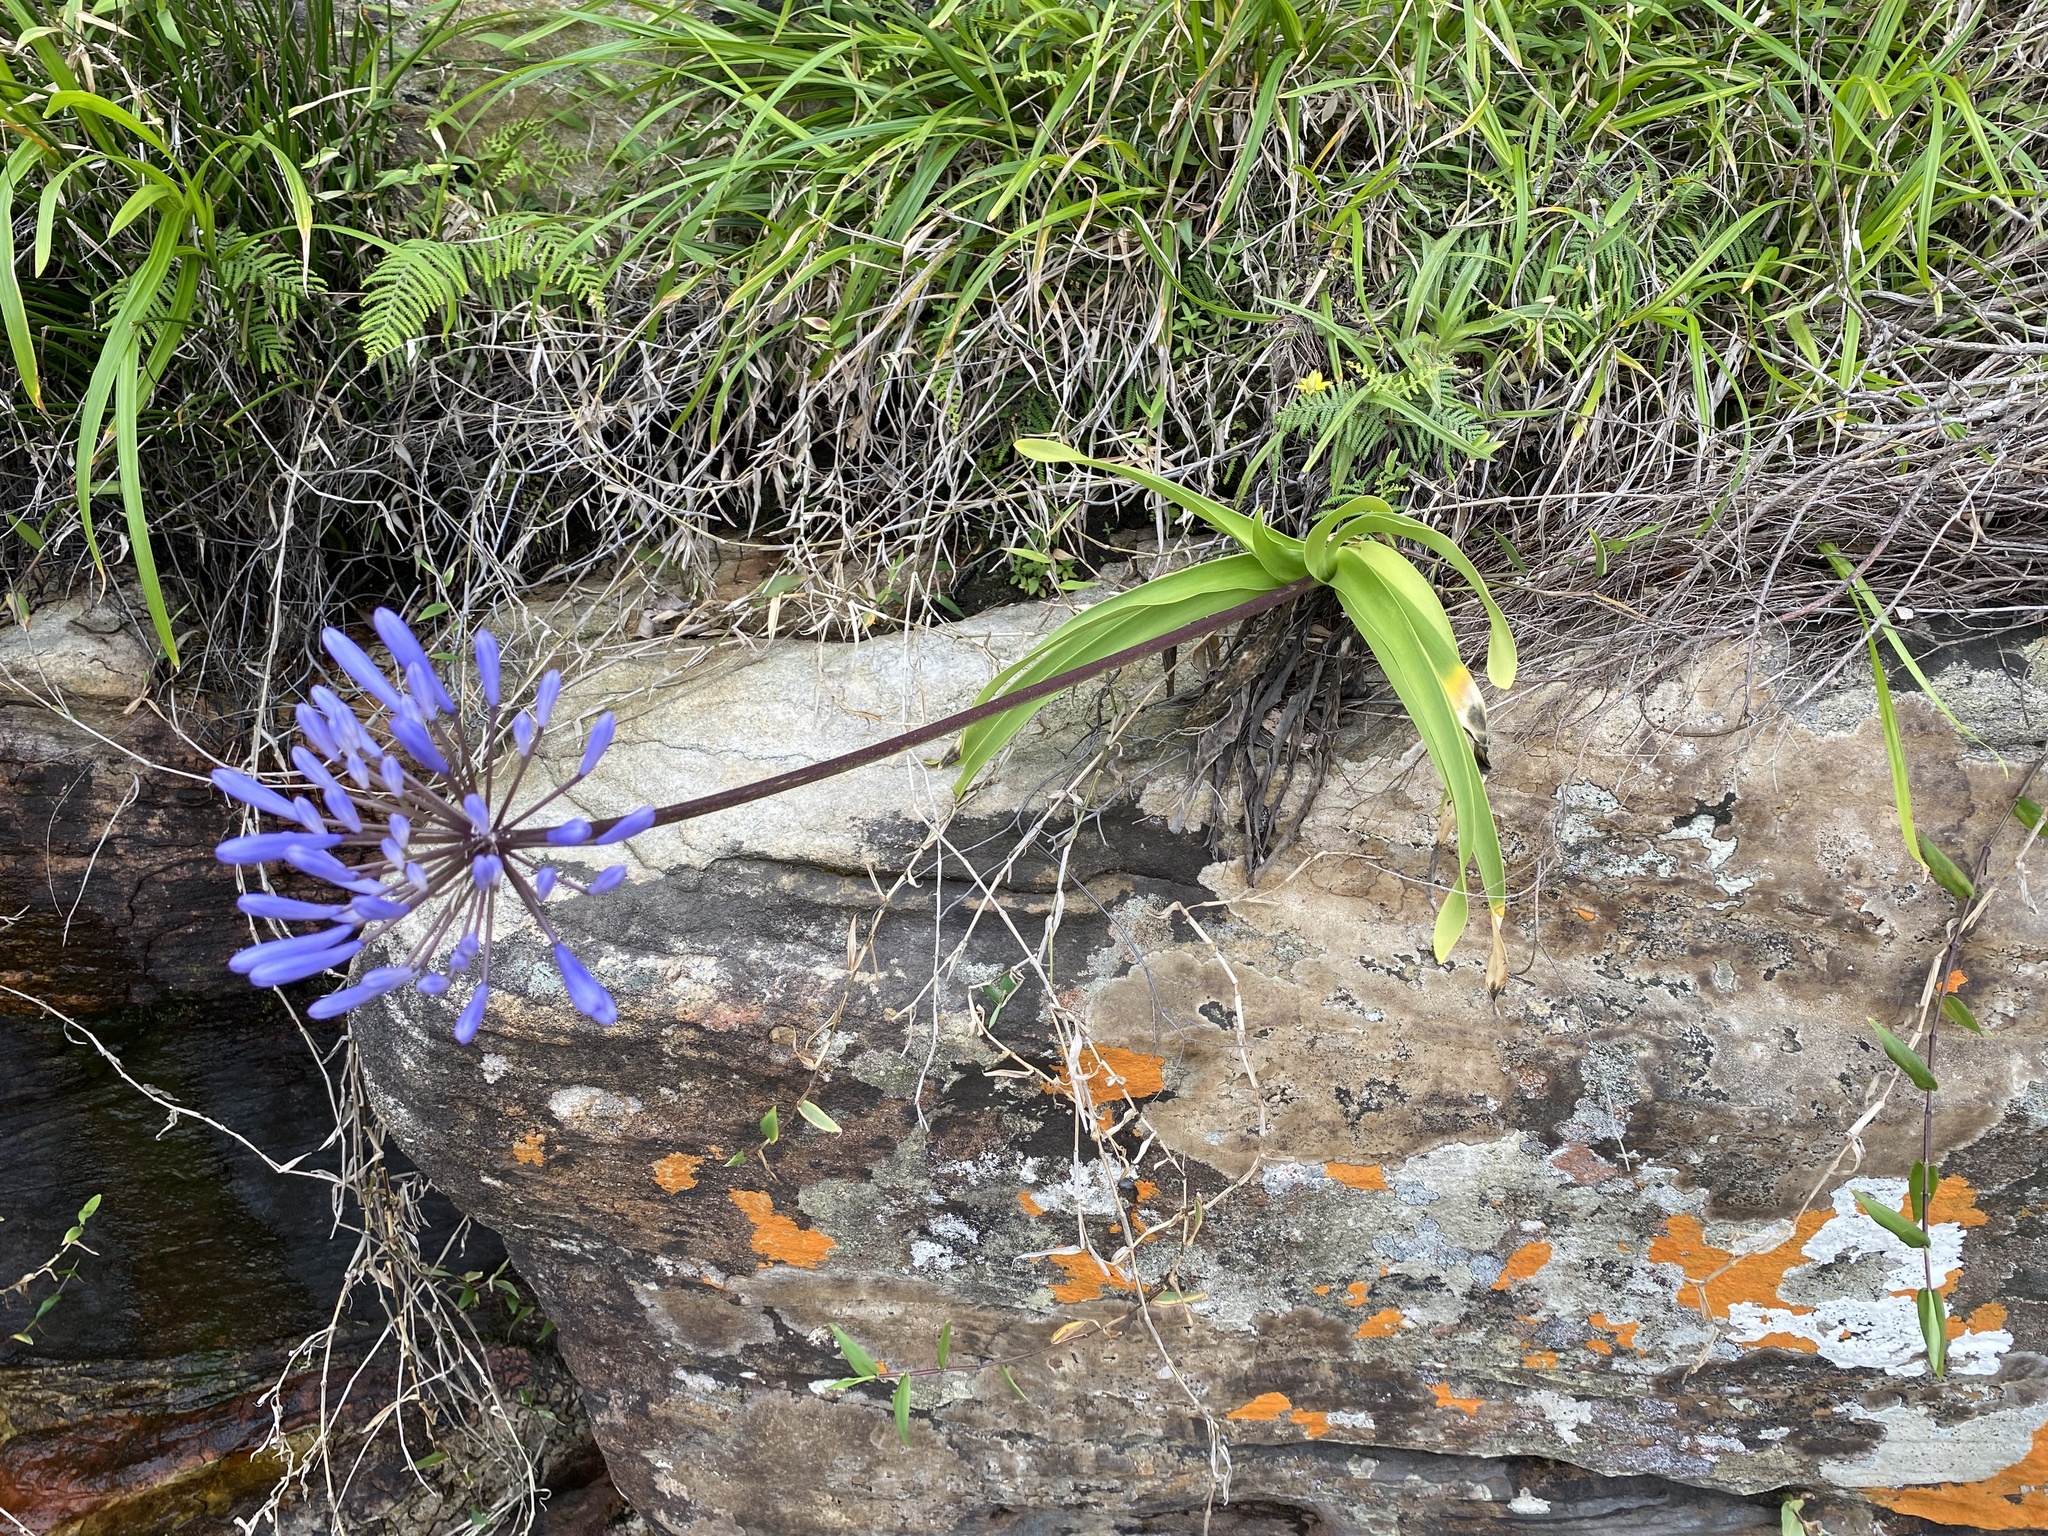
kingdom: Plantae
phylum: Tracheophyta
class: Liliopsida
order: Asparagales
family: Amaryllidaceae
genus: Agapanthus
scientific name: Agapanthus pondoensis
